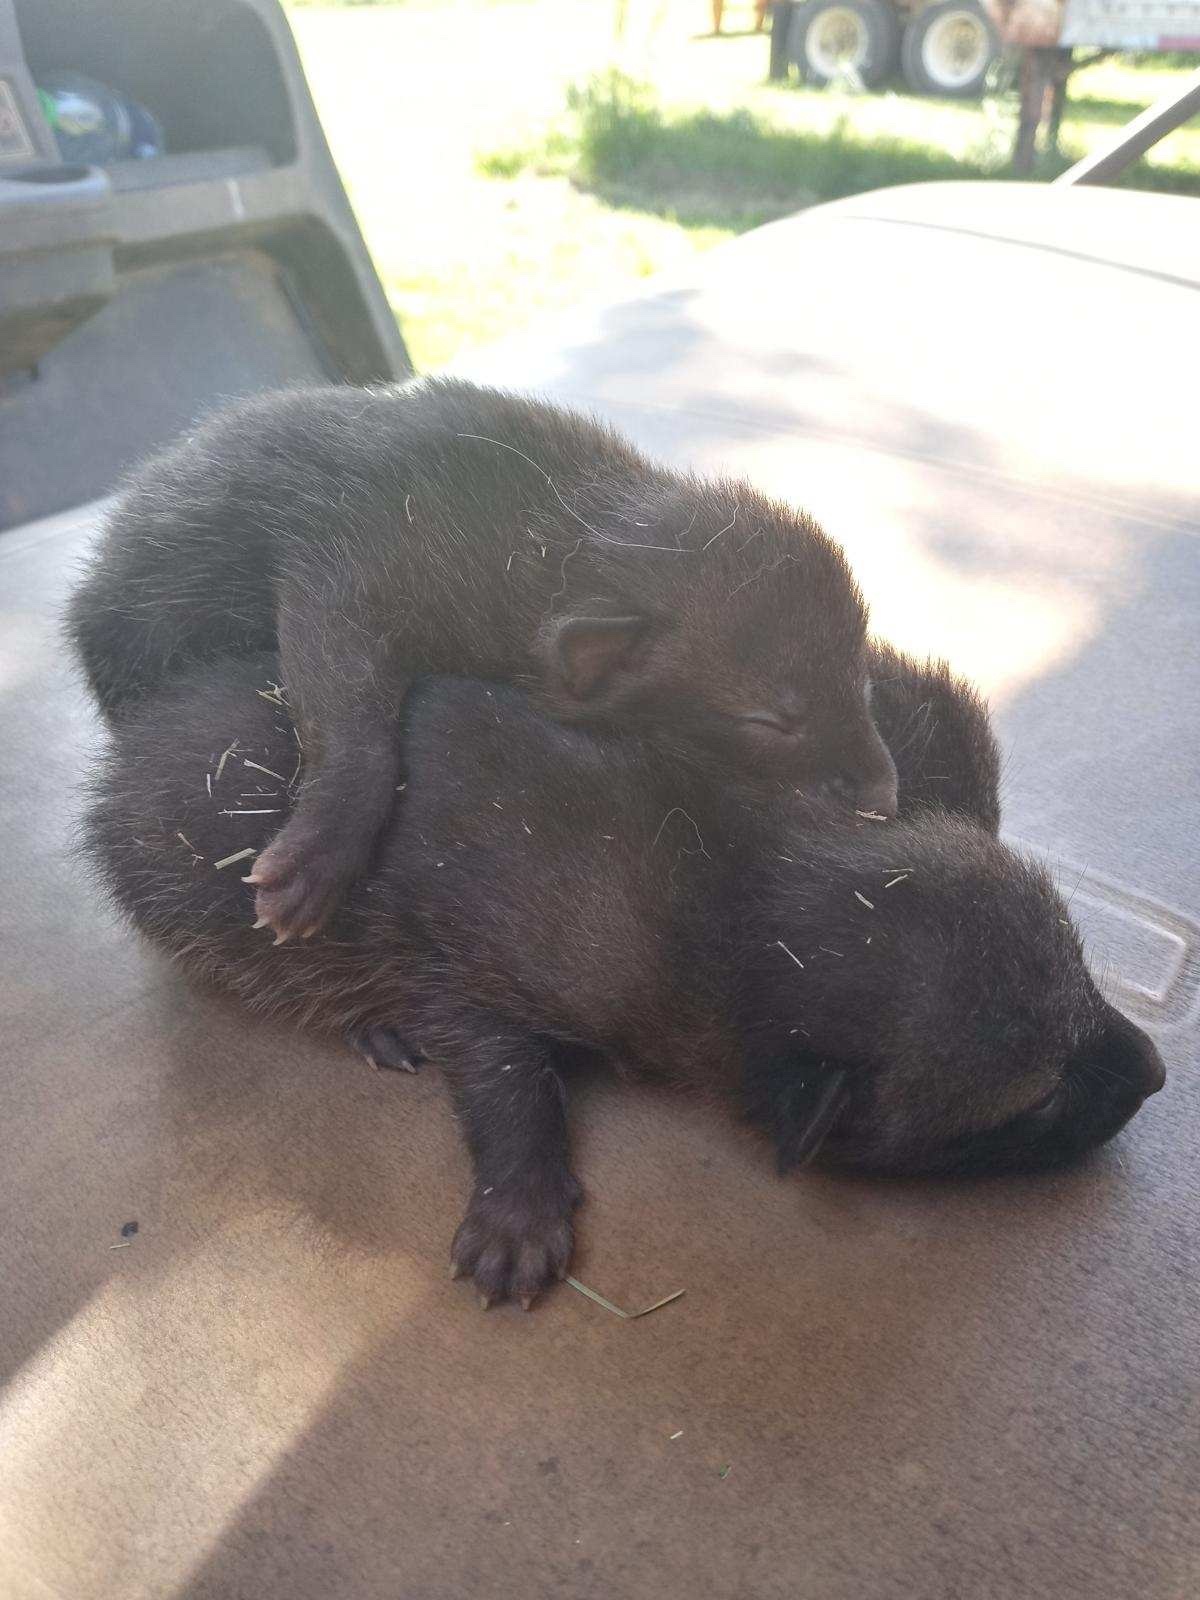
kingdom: Animalia
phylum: Chordata
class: Mammalia
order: Carnivora
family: Canidae
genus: Urocyon
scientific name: Urocyon cinereoargenteus
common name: Gray fox
